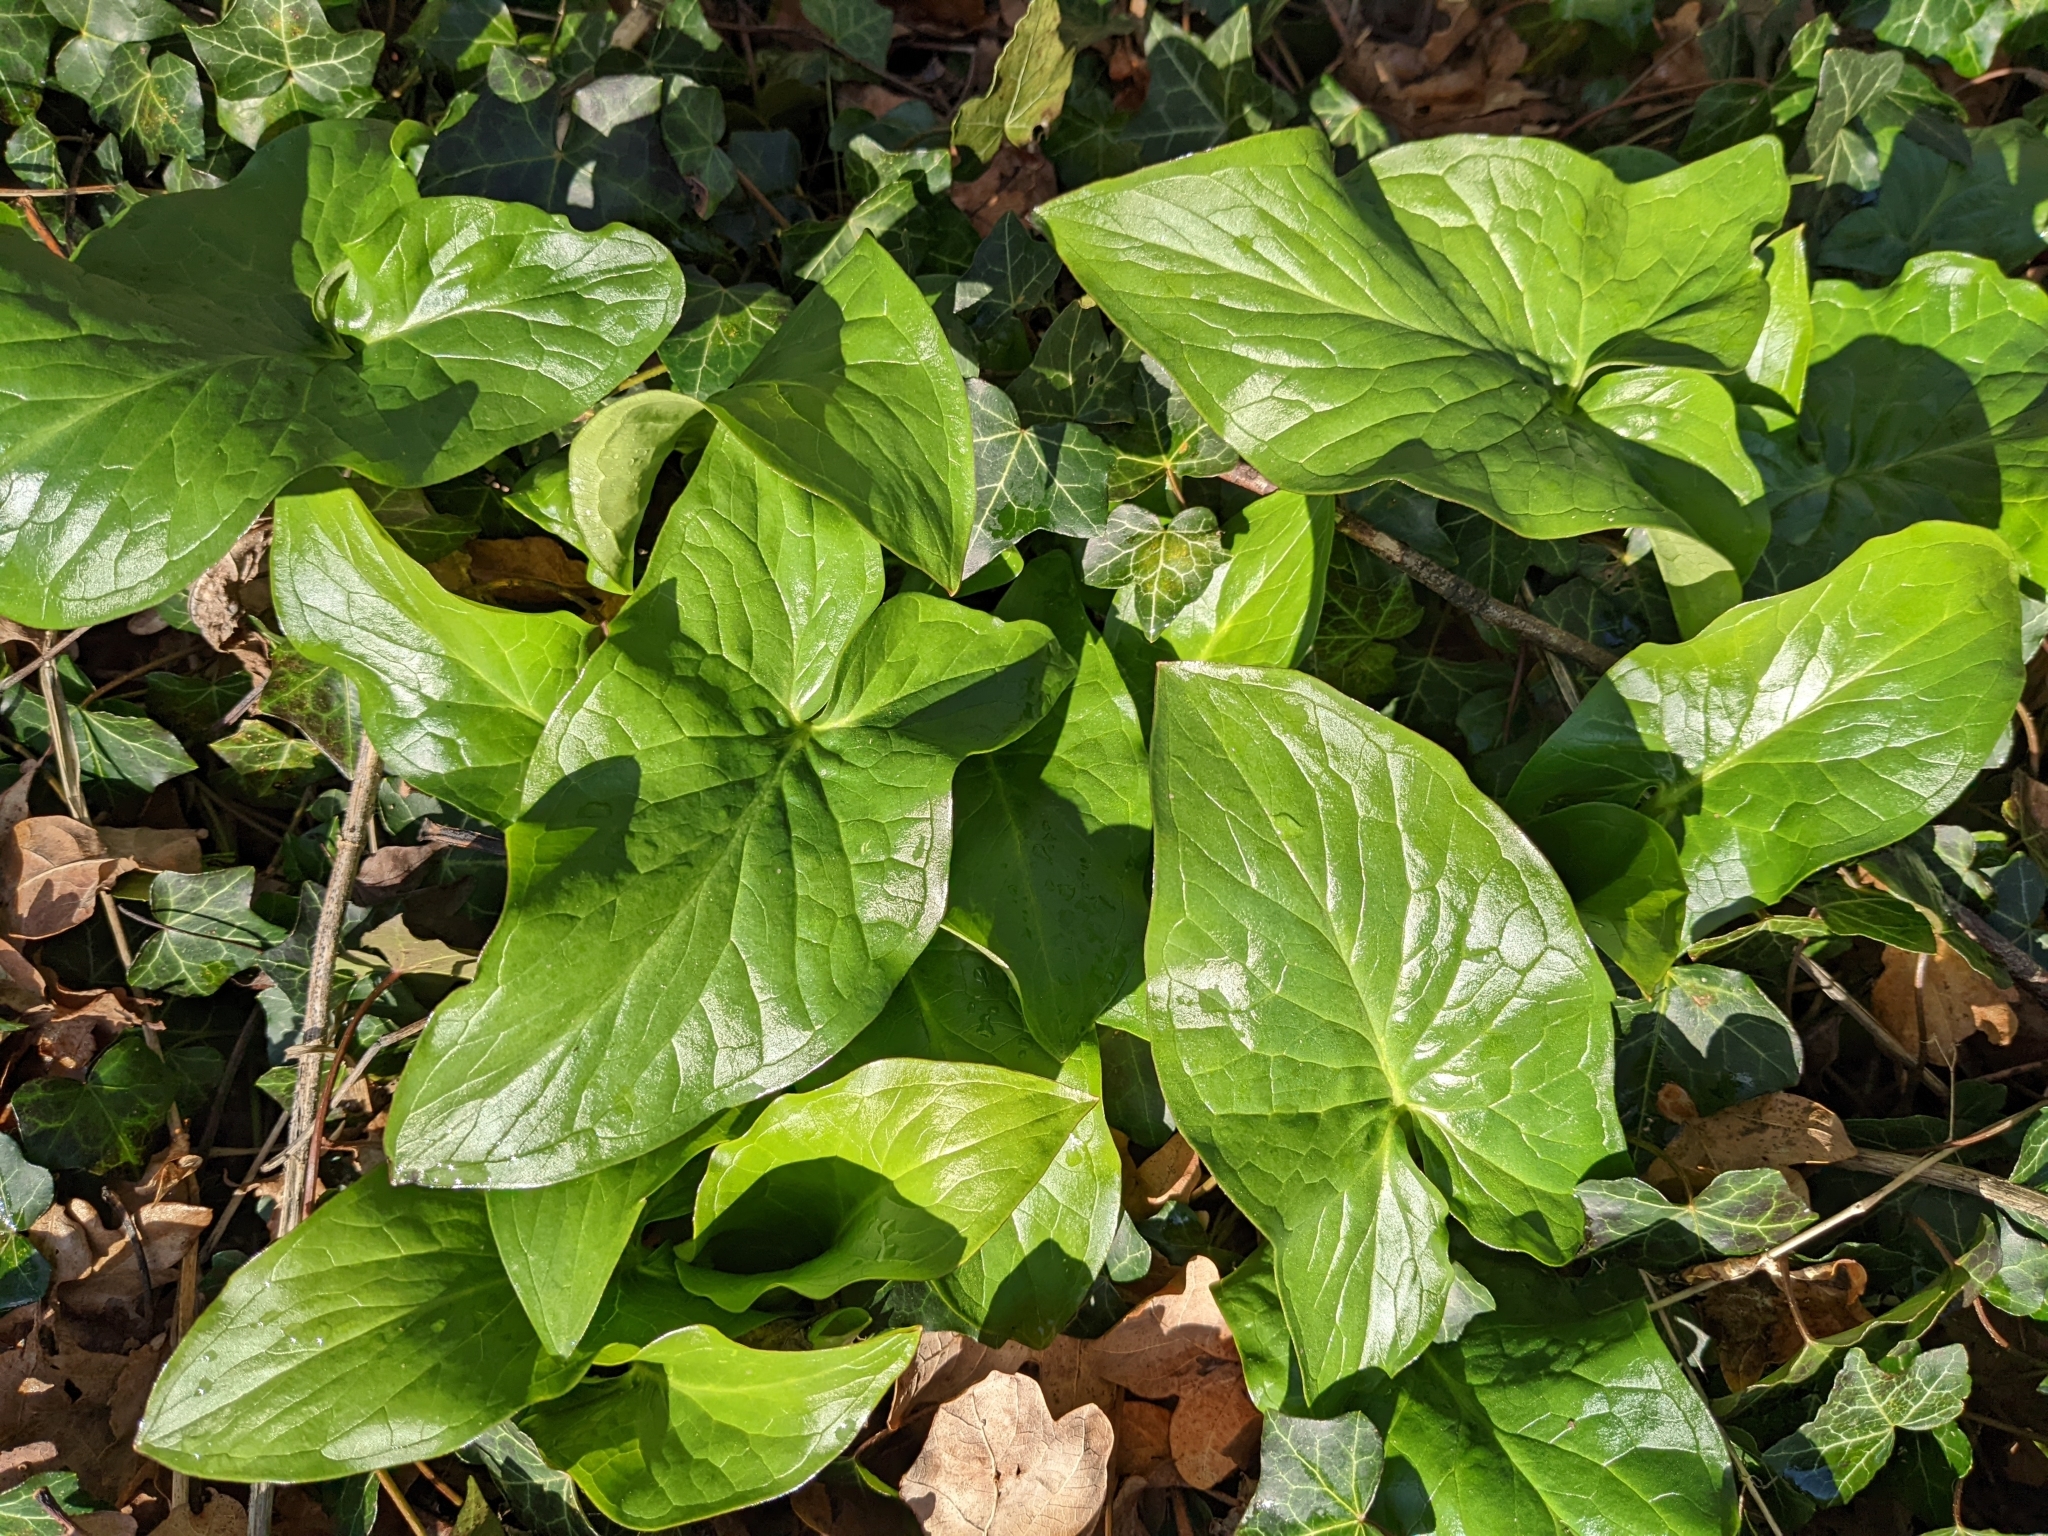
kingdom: Plantae
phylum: Tracheophyta
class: Liliopsida
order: Alismatales
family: Araceae
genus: Arum
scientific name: Arum maculatum
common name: Lords-and-ladies
